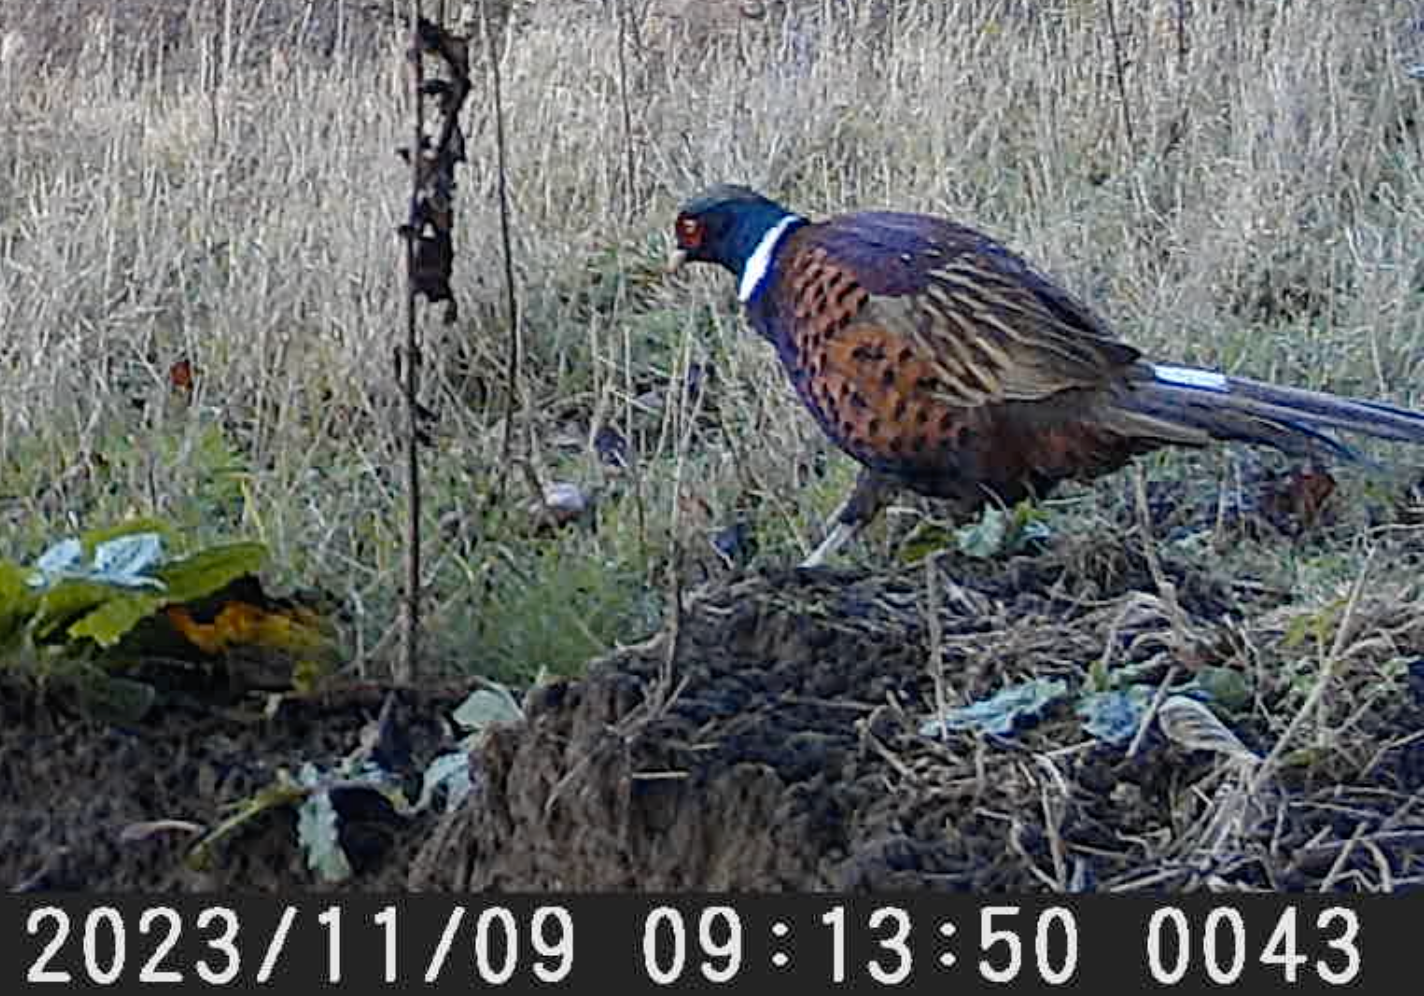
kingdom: Animalia
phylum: Chordata
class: Aves
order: Galliformes
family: Phasianidae
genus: Phasianus
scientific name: Phasianus colchicus
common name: Common pheasant
